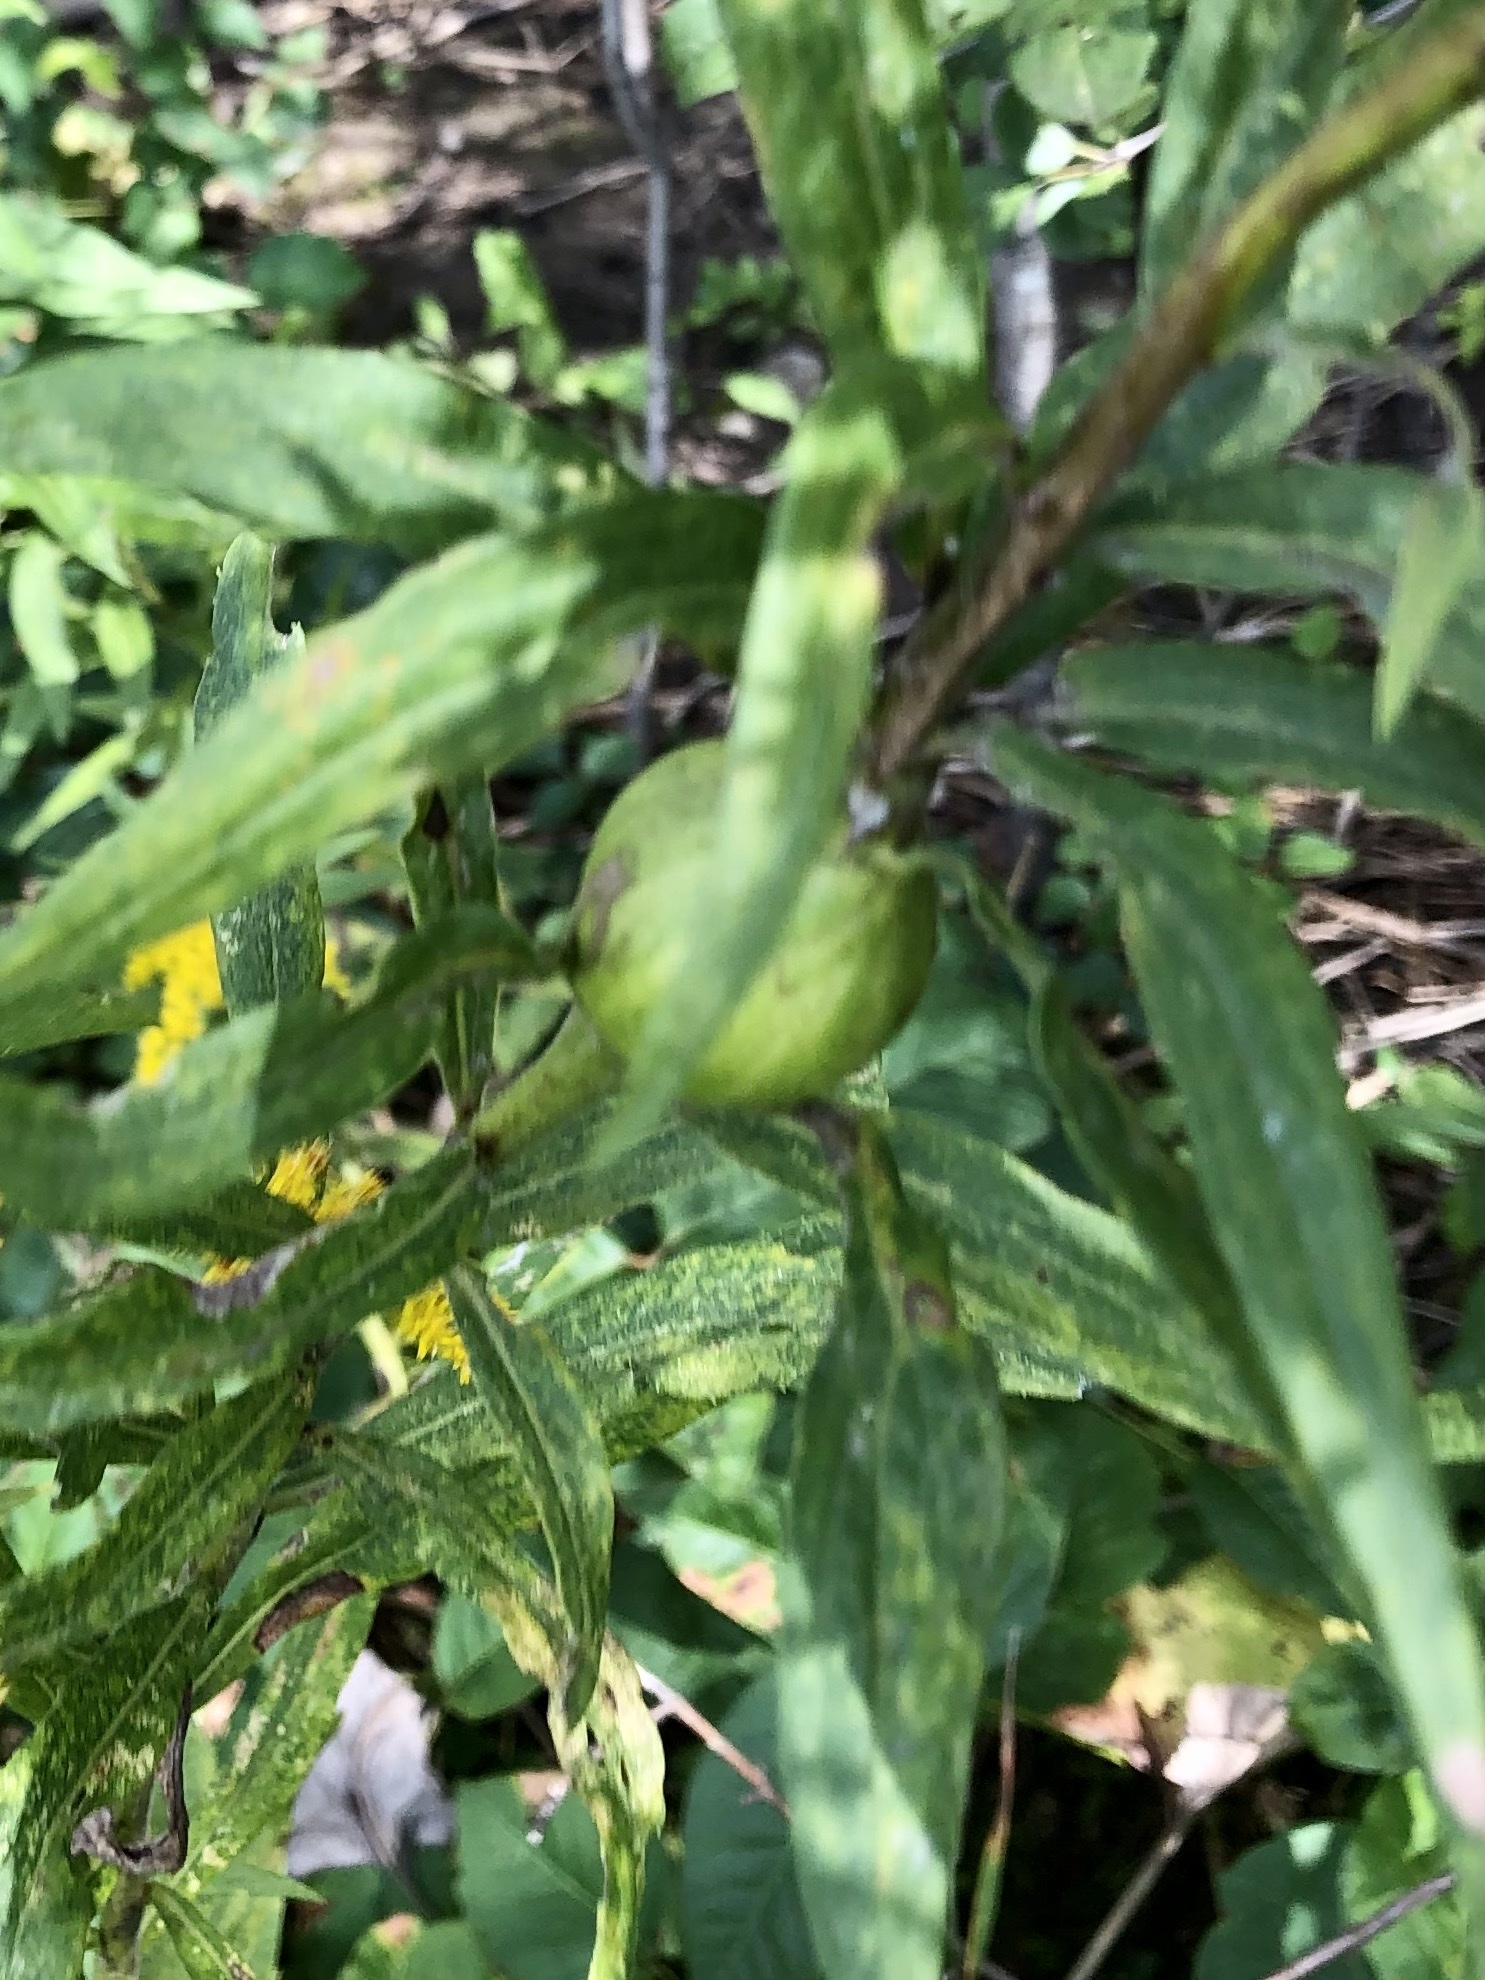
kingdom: Animalia
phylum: Arthropoda
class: Insecta
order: Diptera
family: Tephritidae
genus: Eurosta
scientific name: Eurosta solidaginis
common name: Goldenrod gall fly
